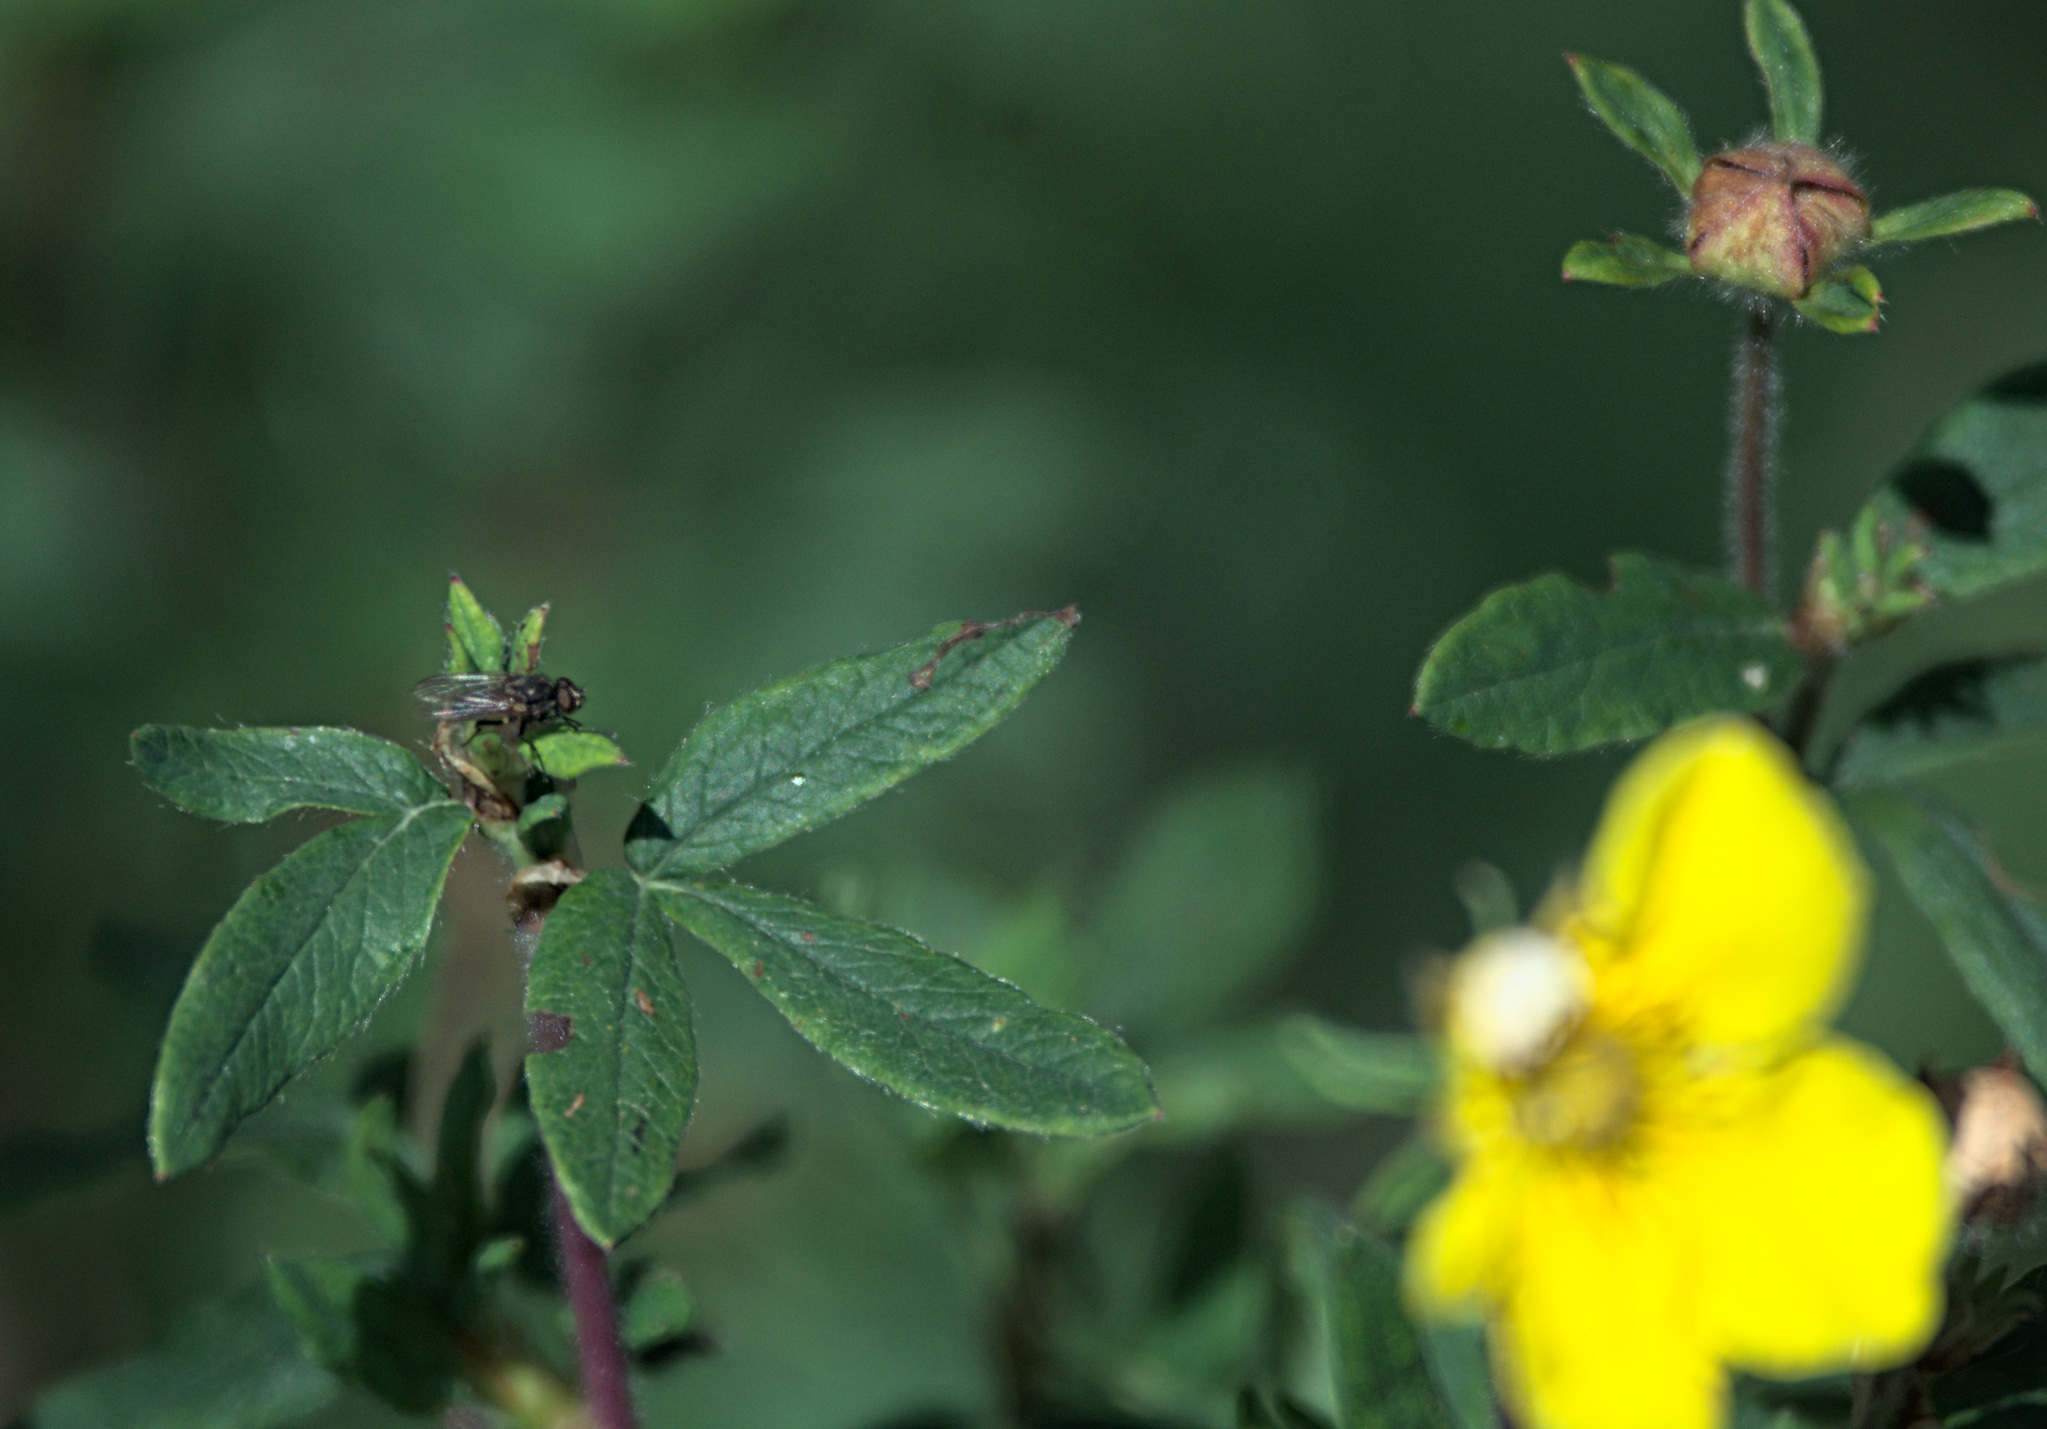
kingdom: Plantae
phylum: Tracheophyta
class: Magnoliopsida
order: Rosales
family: Rosaceae
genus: Dasiphora
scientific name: Dasiphora fruticosa
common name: Shrubby cinquefoil
